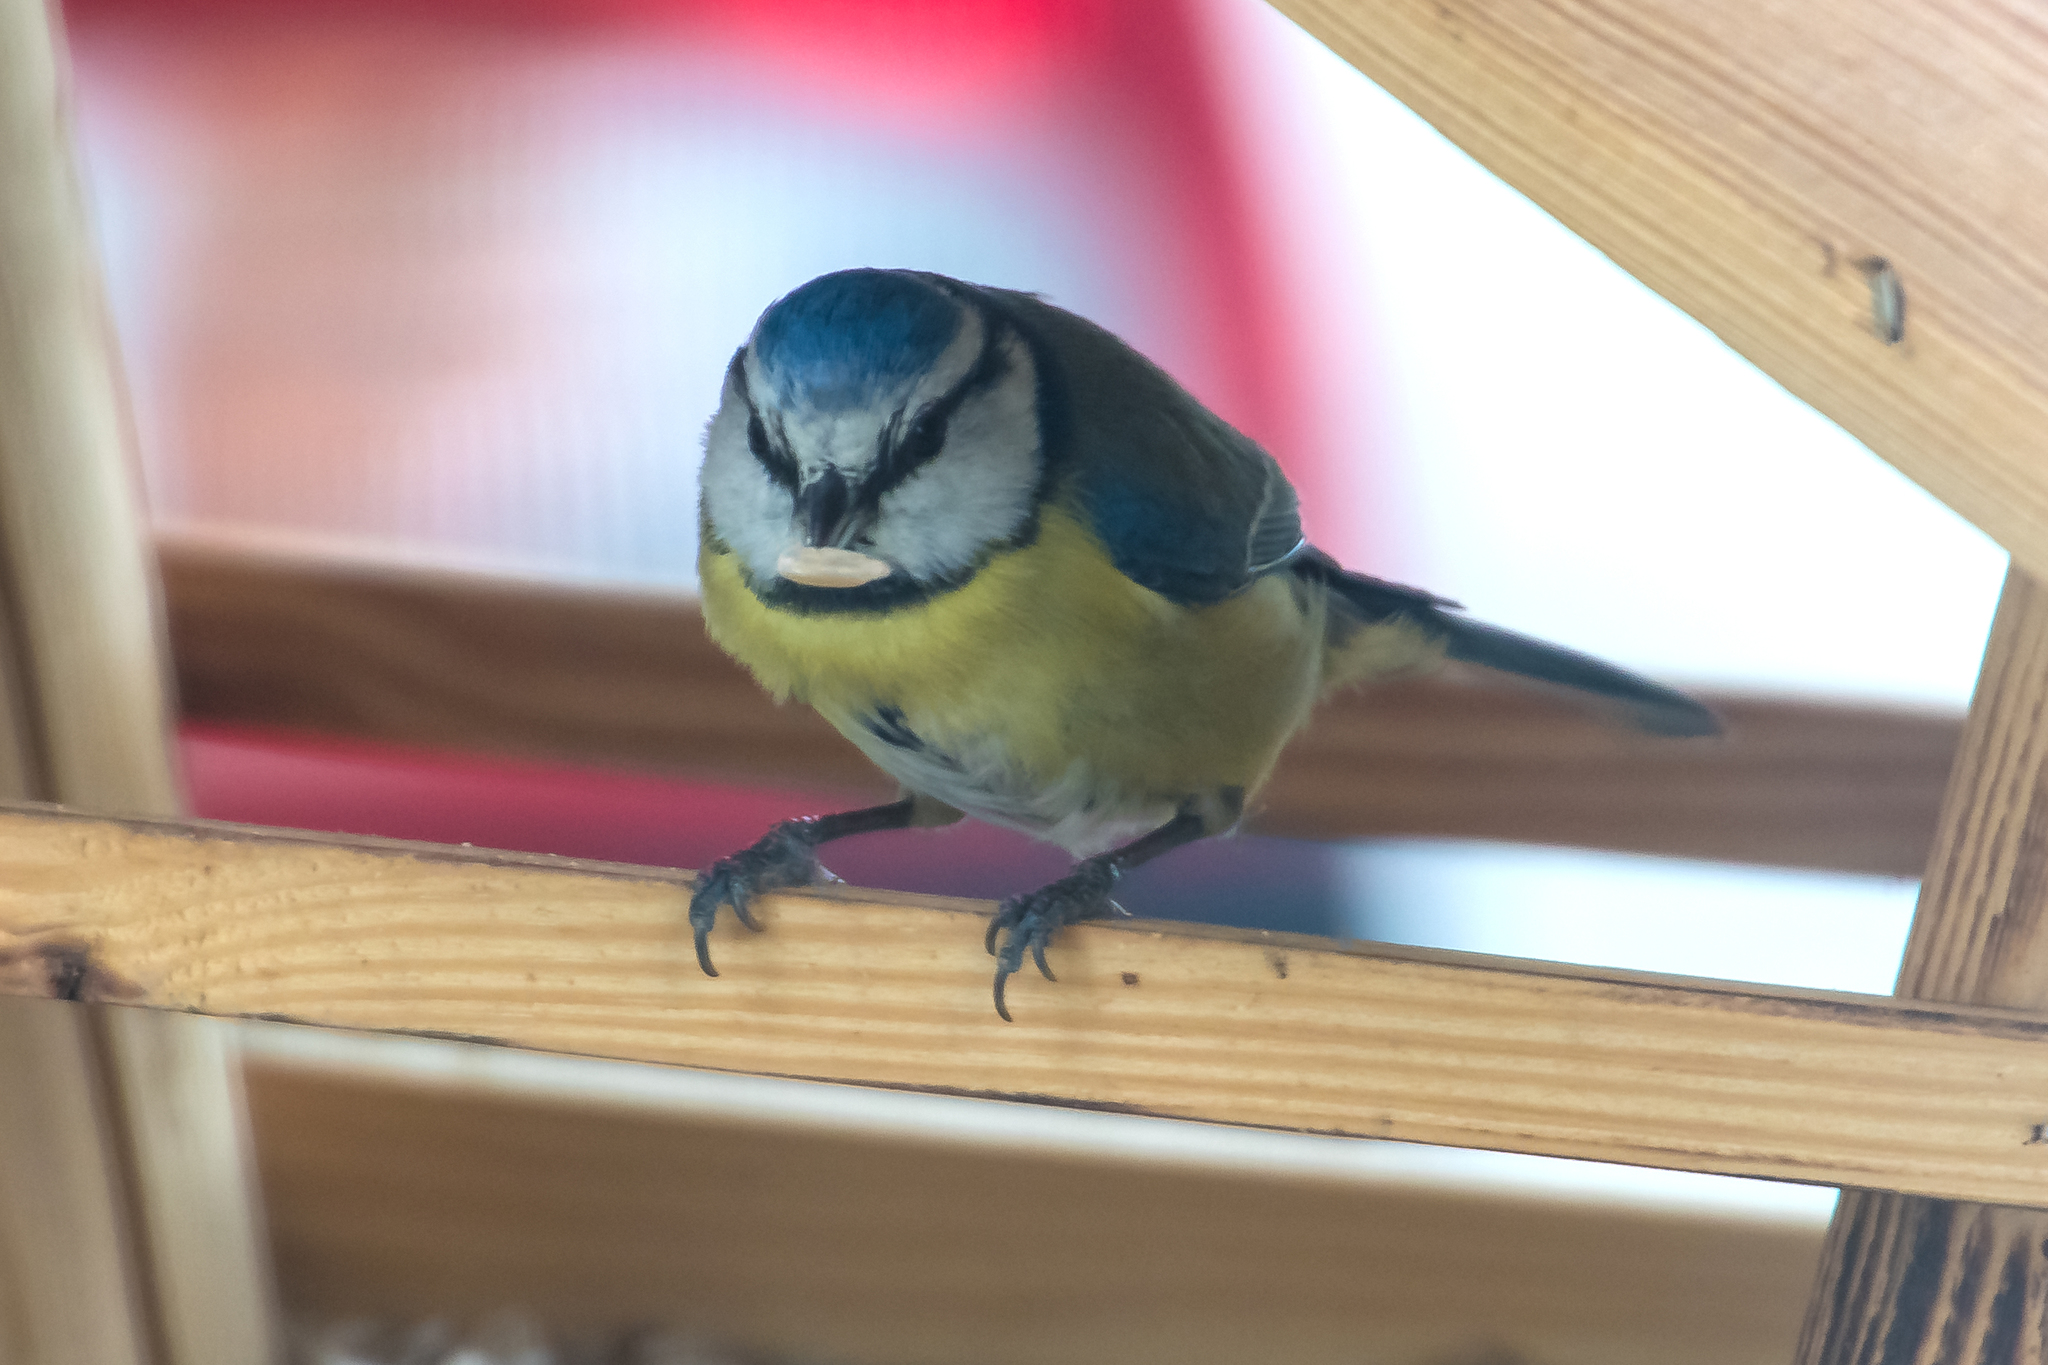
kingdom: Animalia
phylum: Chordata
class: Aves
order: Passeriformes
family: Paridae
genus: Cyanistes
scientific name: Cyanistes caeruleus
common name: Eurasian blue tit
